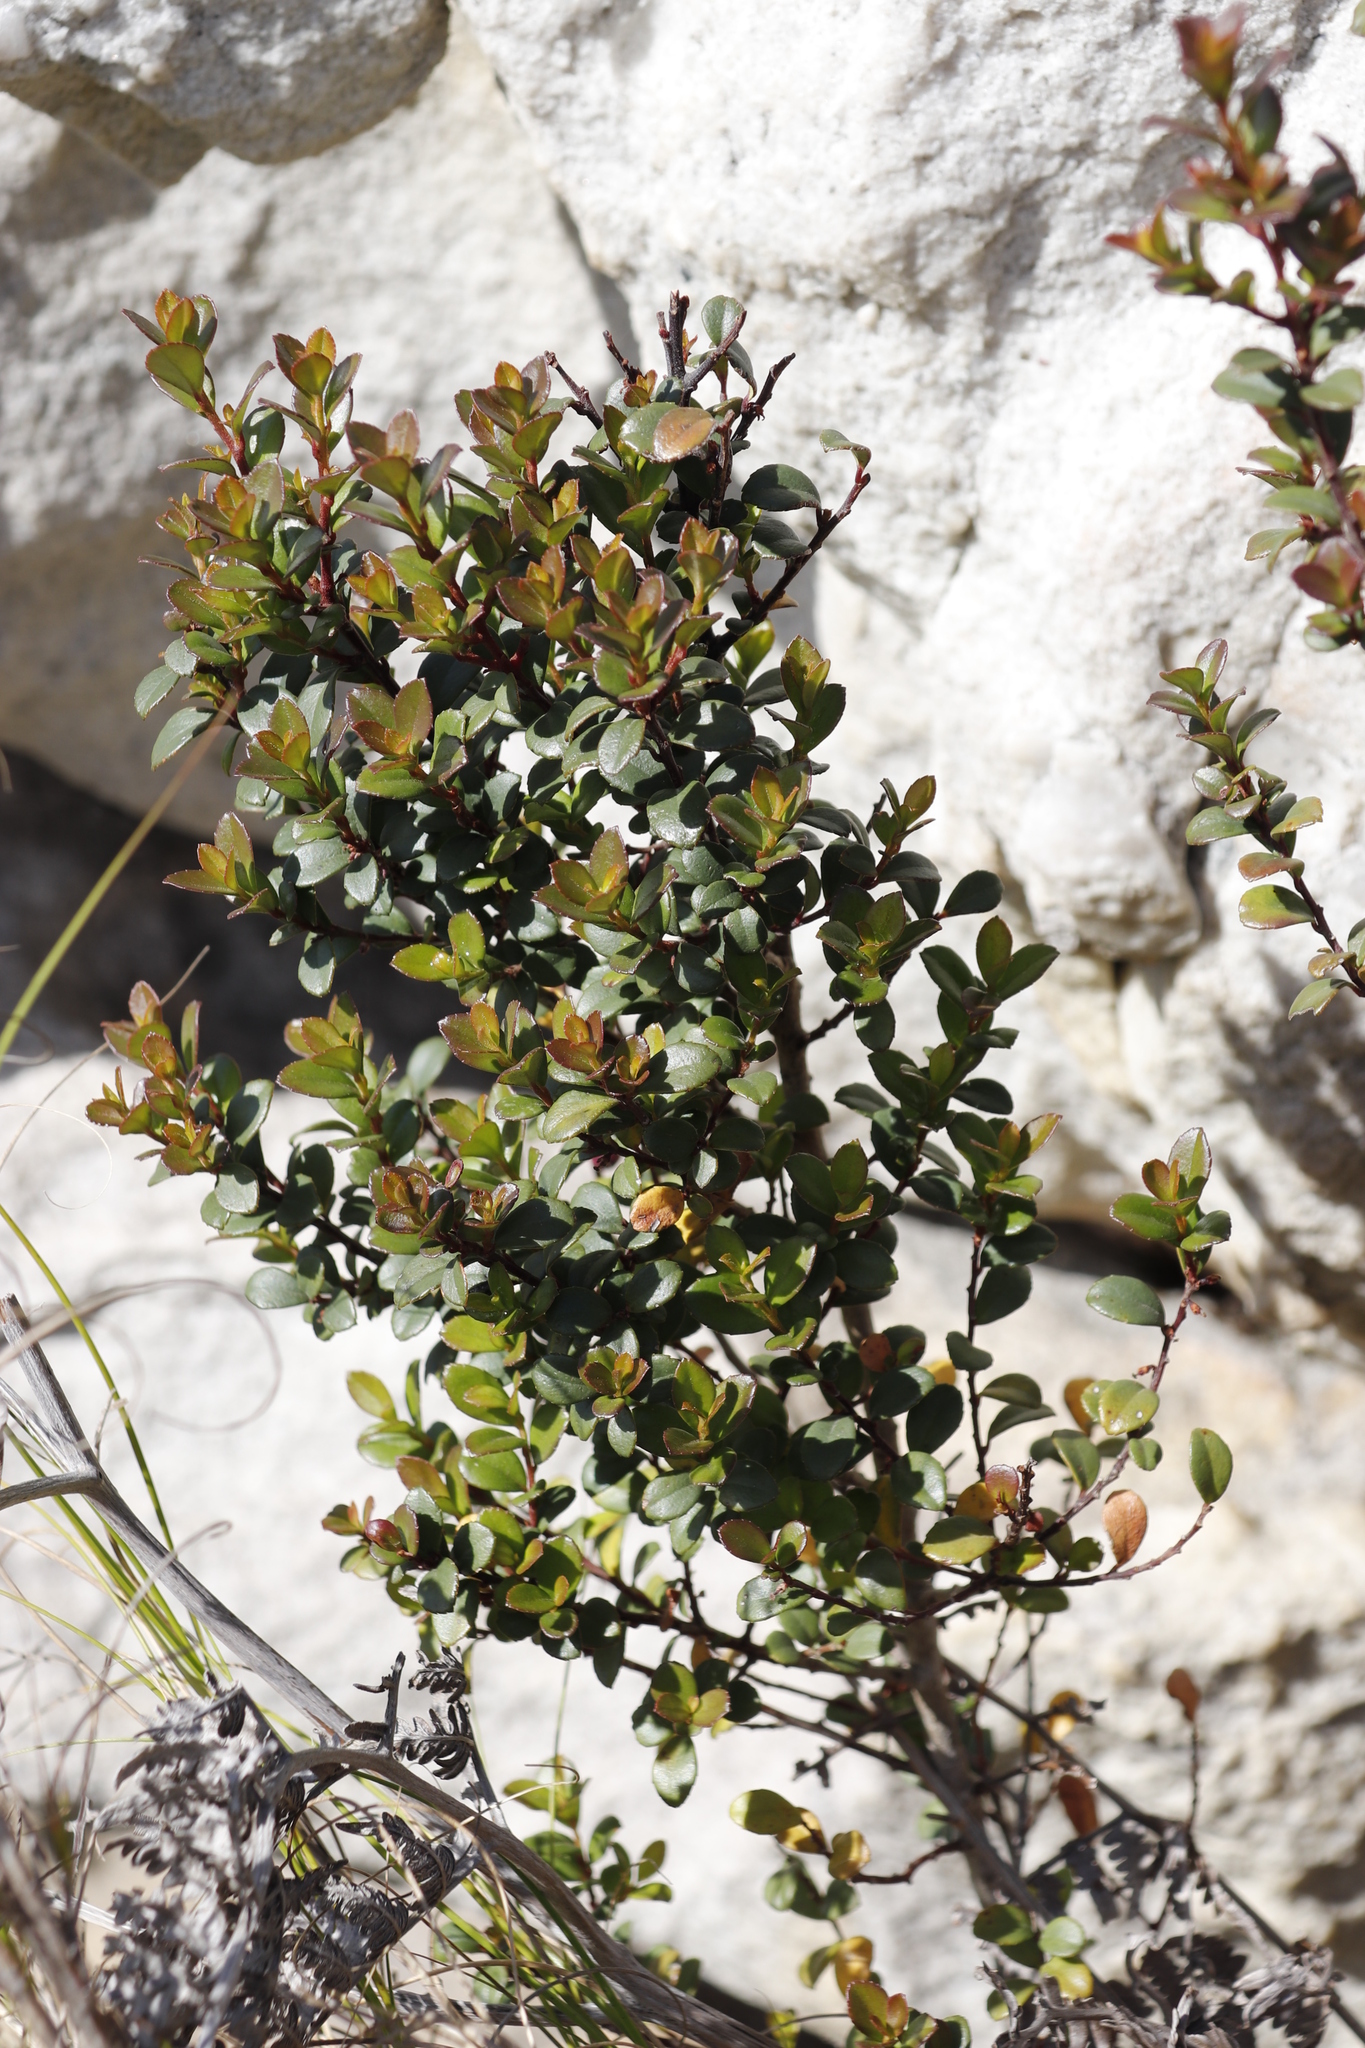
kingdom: Plantae
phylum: Tracheophyta
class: Magnoliopsida
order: Ericales
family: Primulaceae
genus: Myrsine
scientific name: Myrsine africana
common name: African-boxwood
